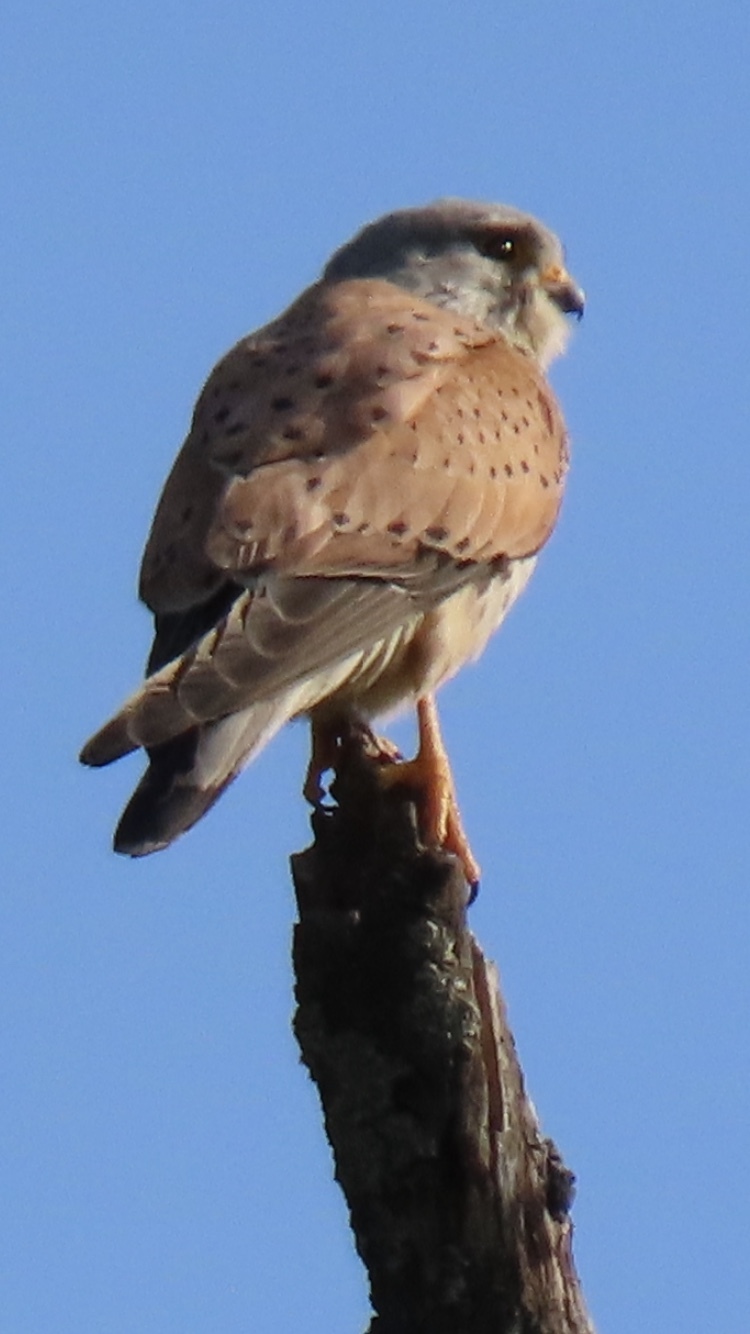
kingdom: Animalia
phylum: Chordata
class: Aves
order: Falconiformes
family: Falconidae
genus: Falco
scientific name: Falco tinnunculus
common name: Common kestrel
